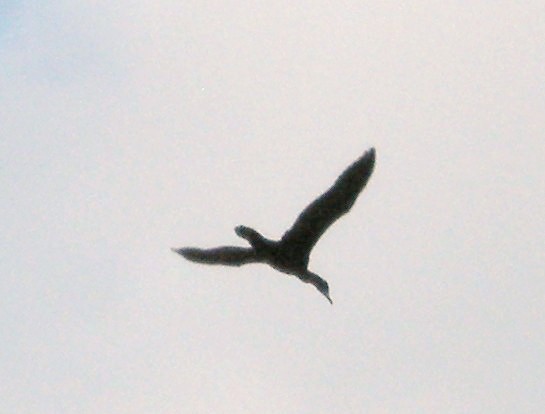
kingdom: Animalia
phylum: Chordata
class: Aves
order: Suliformes
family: Phalacrocoracidae
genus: Phalacrocorax
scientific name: Phalacrocorax auritus
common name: Double-crested cormorant
